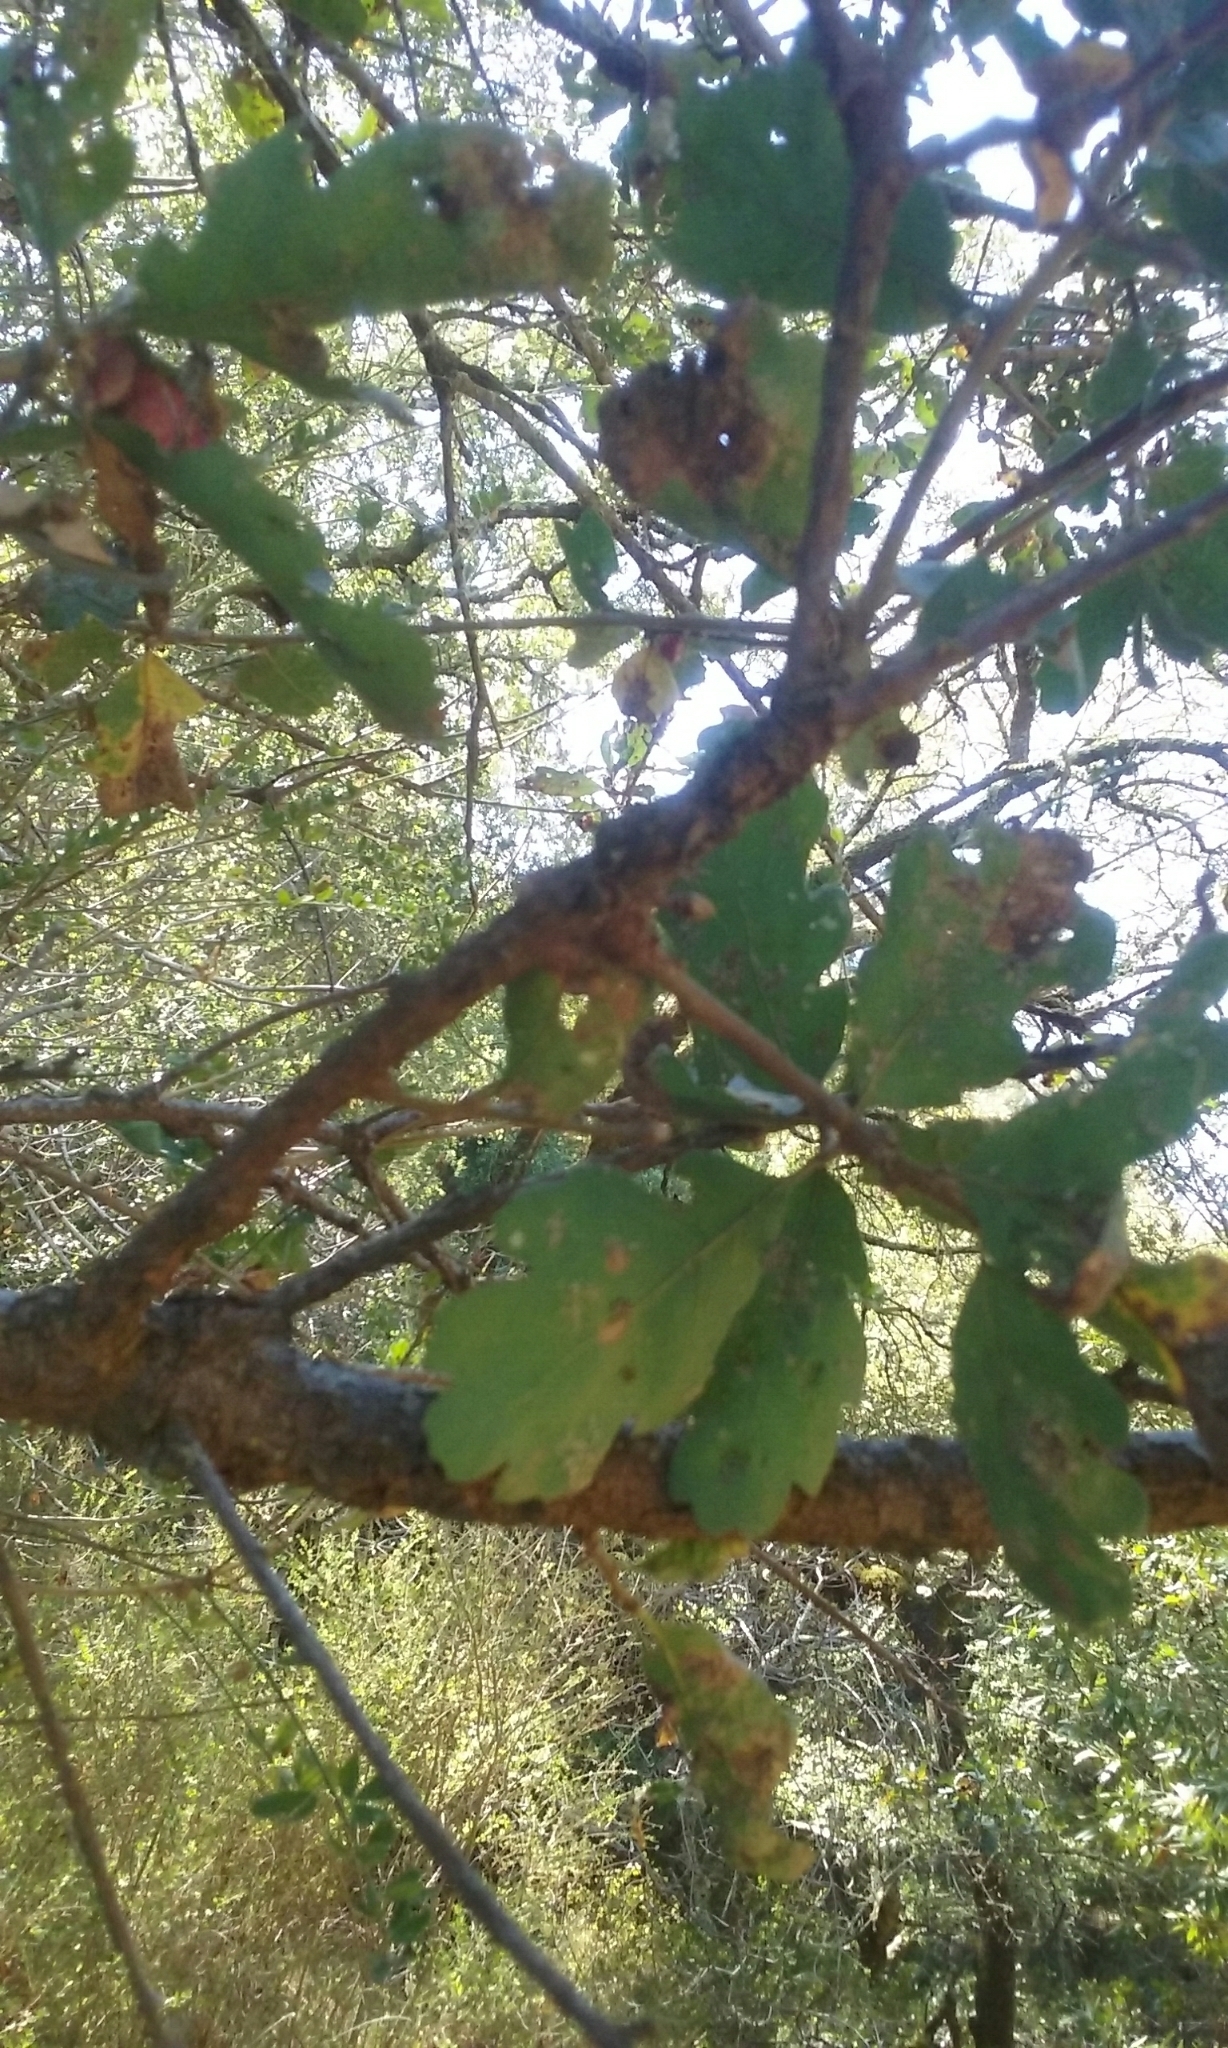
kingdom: Plantae
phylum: Tracheophyta
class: Magnoliopsida
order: Fagales
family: Fagaceae
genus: Quercus
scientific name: Quercus douglasii
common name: Blue oak
